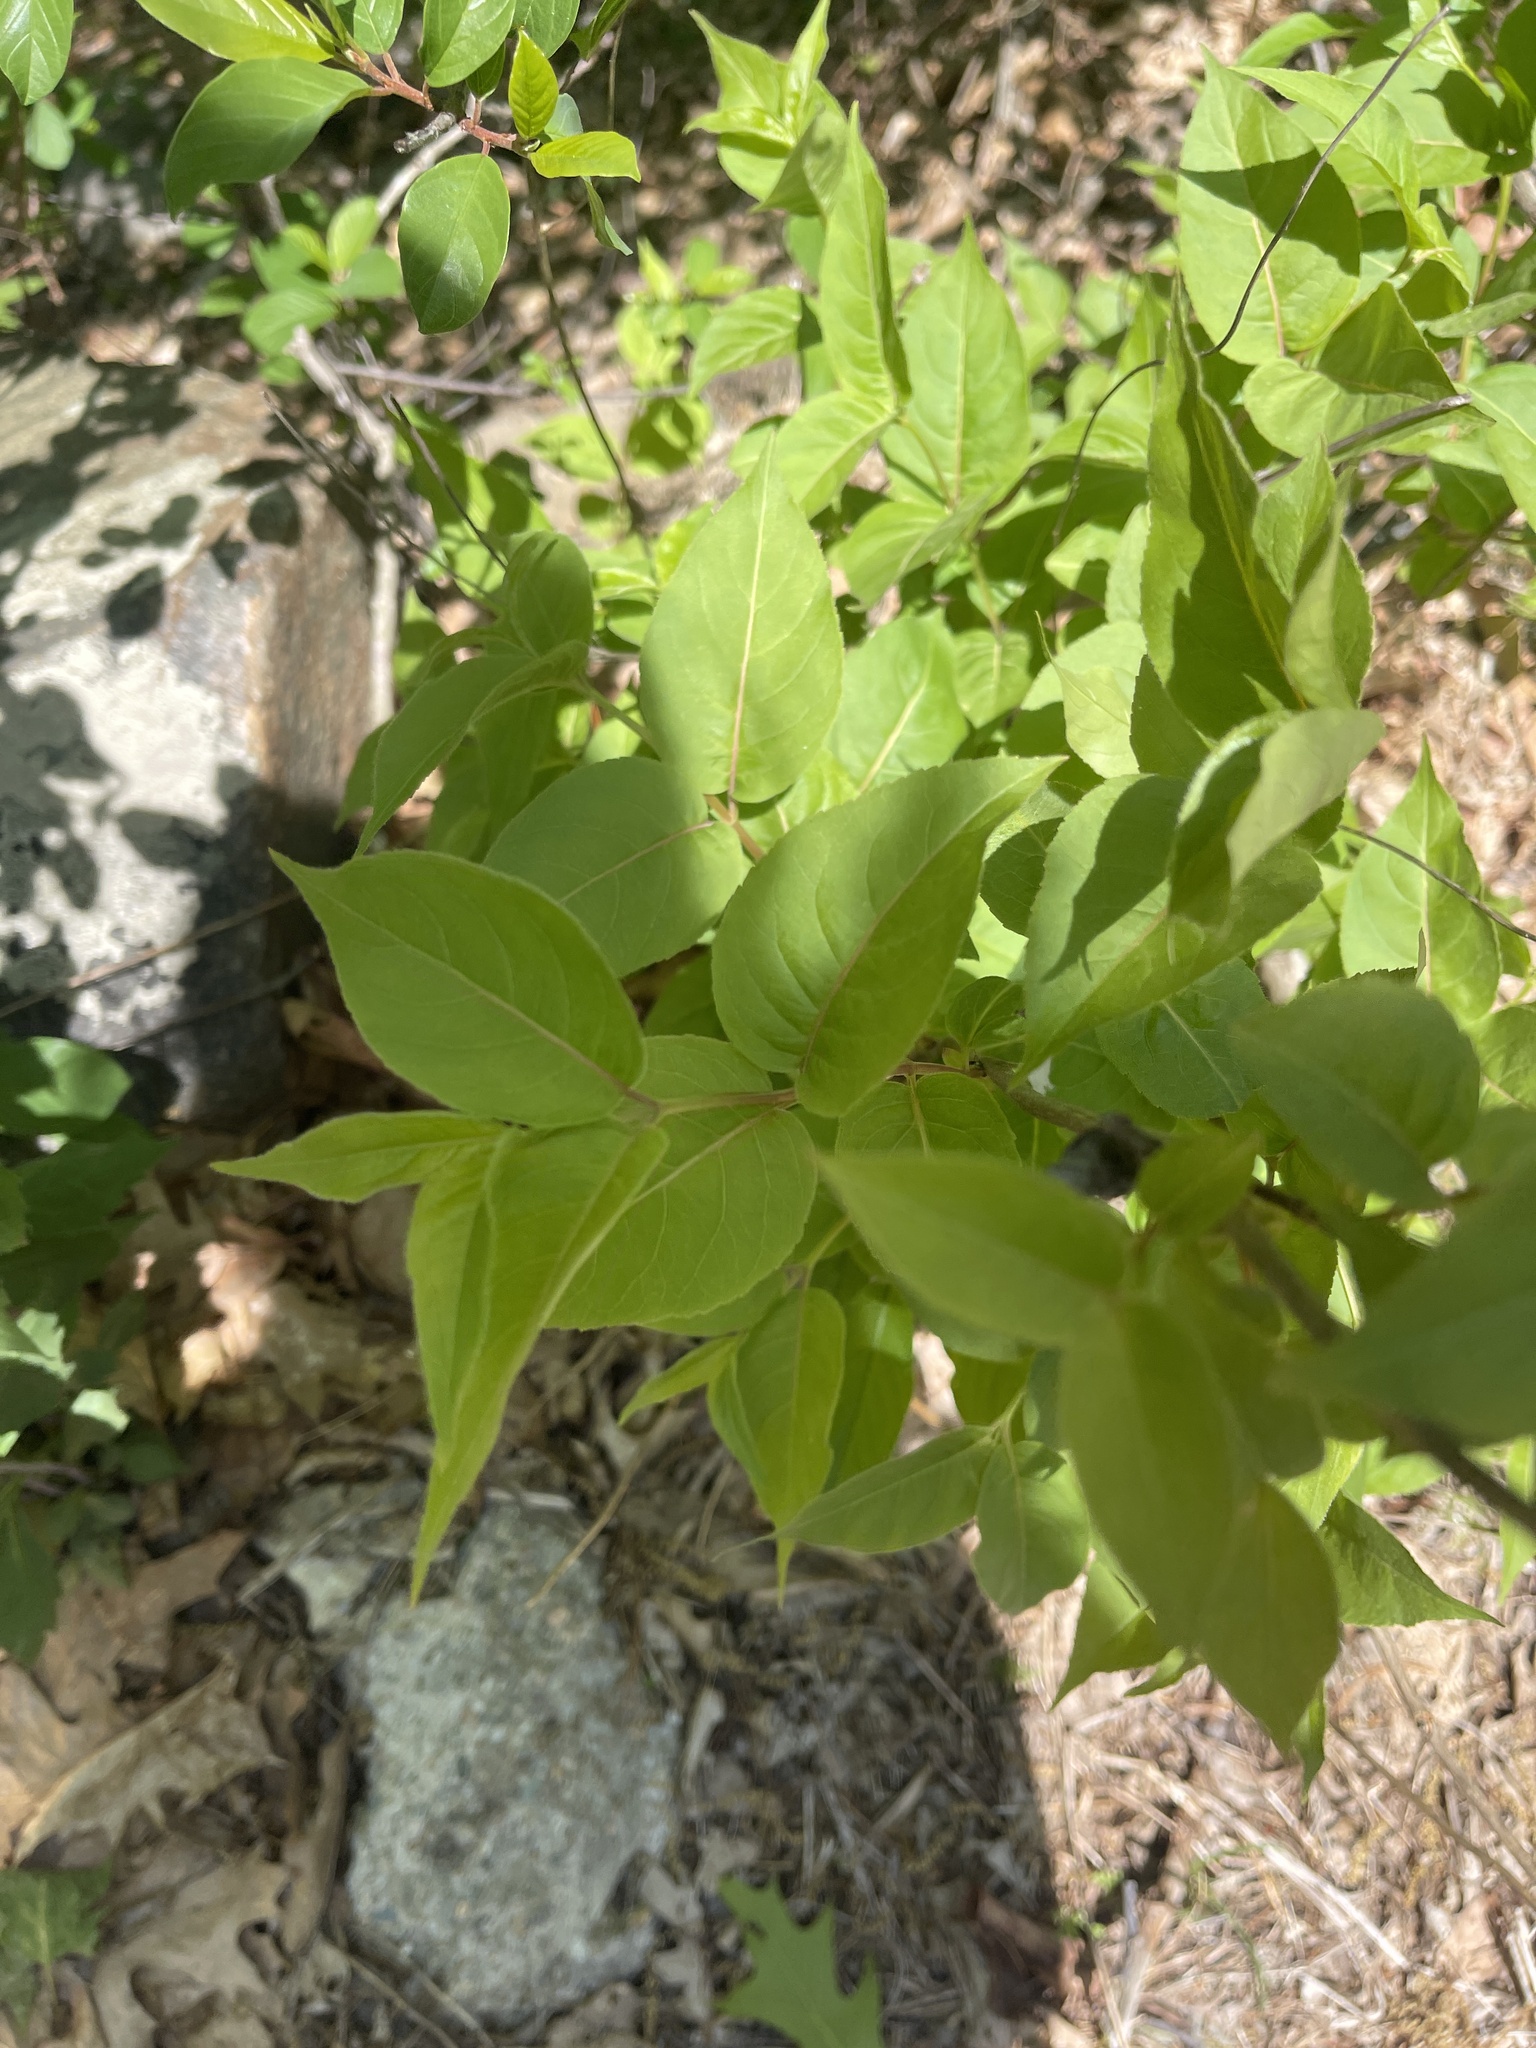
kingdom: Plantae
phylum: Tracheophyta
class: Magnoliopsida
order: Dipsacales
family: Caprifoliaceae
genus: Diervilla
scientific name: Diervilla lonicera
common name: Bush-honeysuckle
